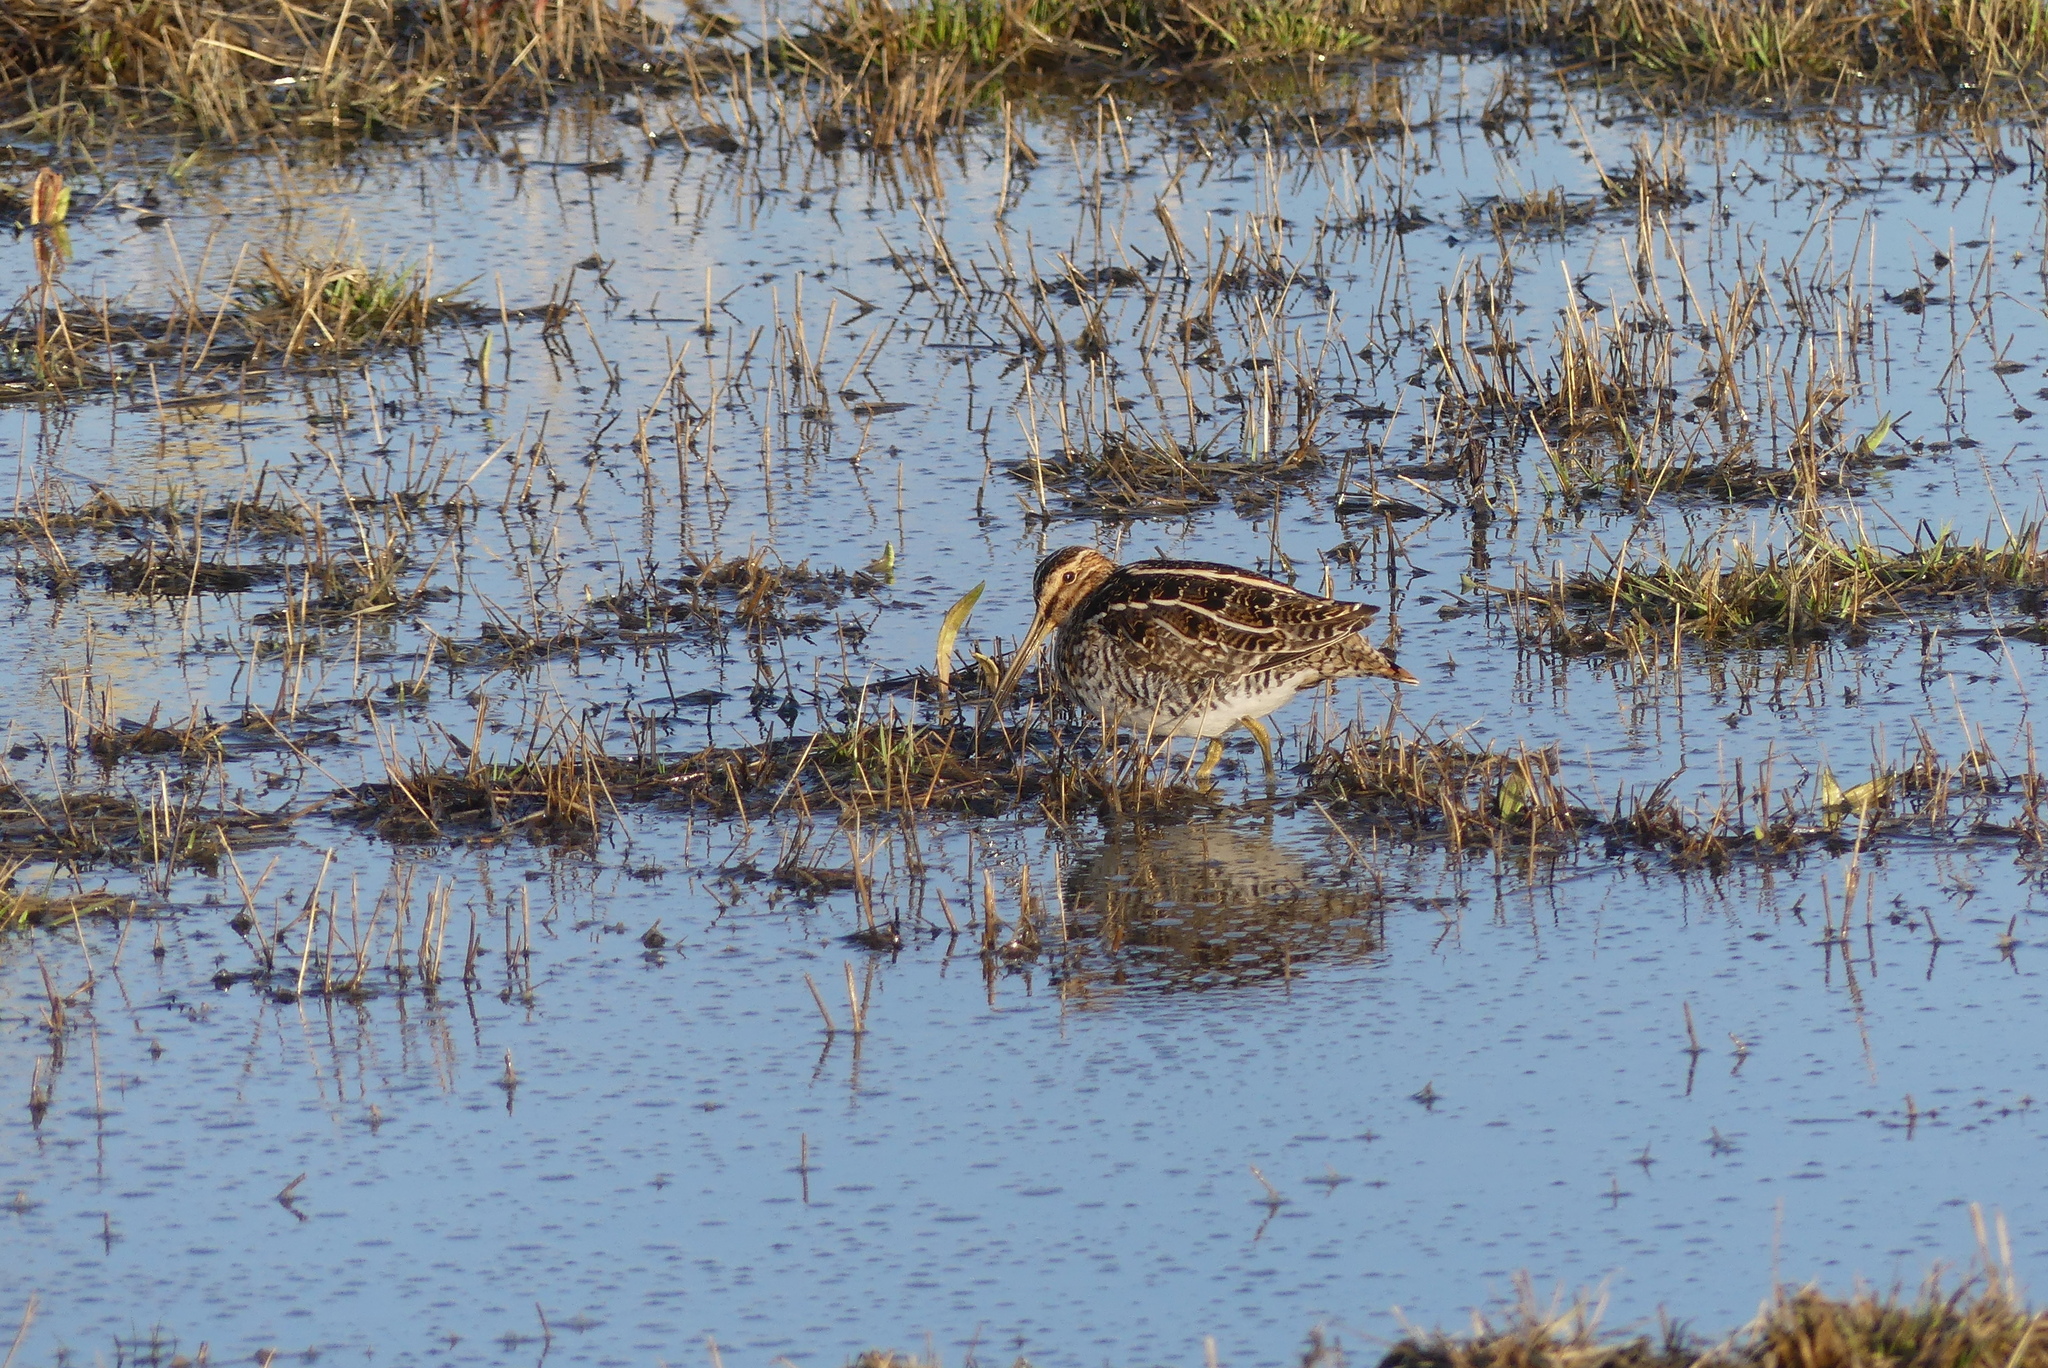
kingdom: Animalia
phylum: Chordata
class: Aves
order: Charadriiformes
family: Scolopacidae
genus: Gallinago
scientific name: Gallinago delicata
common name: Wilson's snipe
